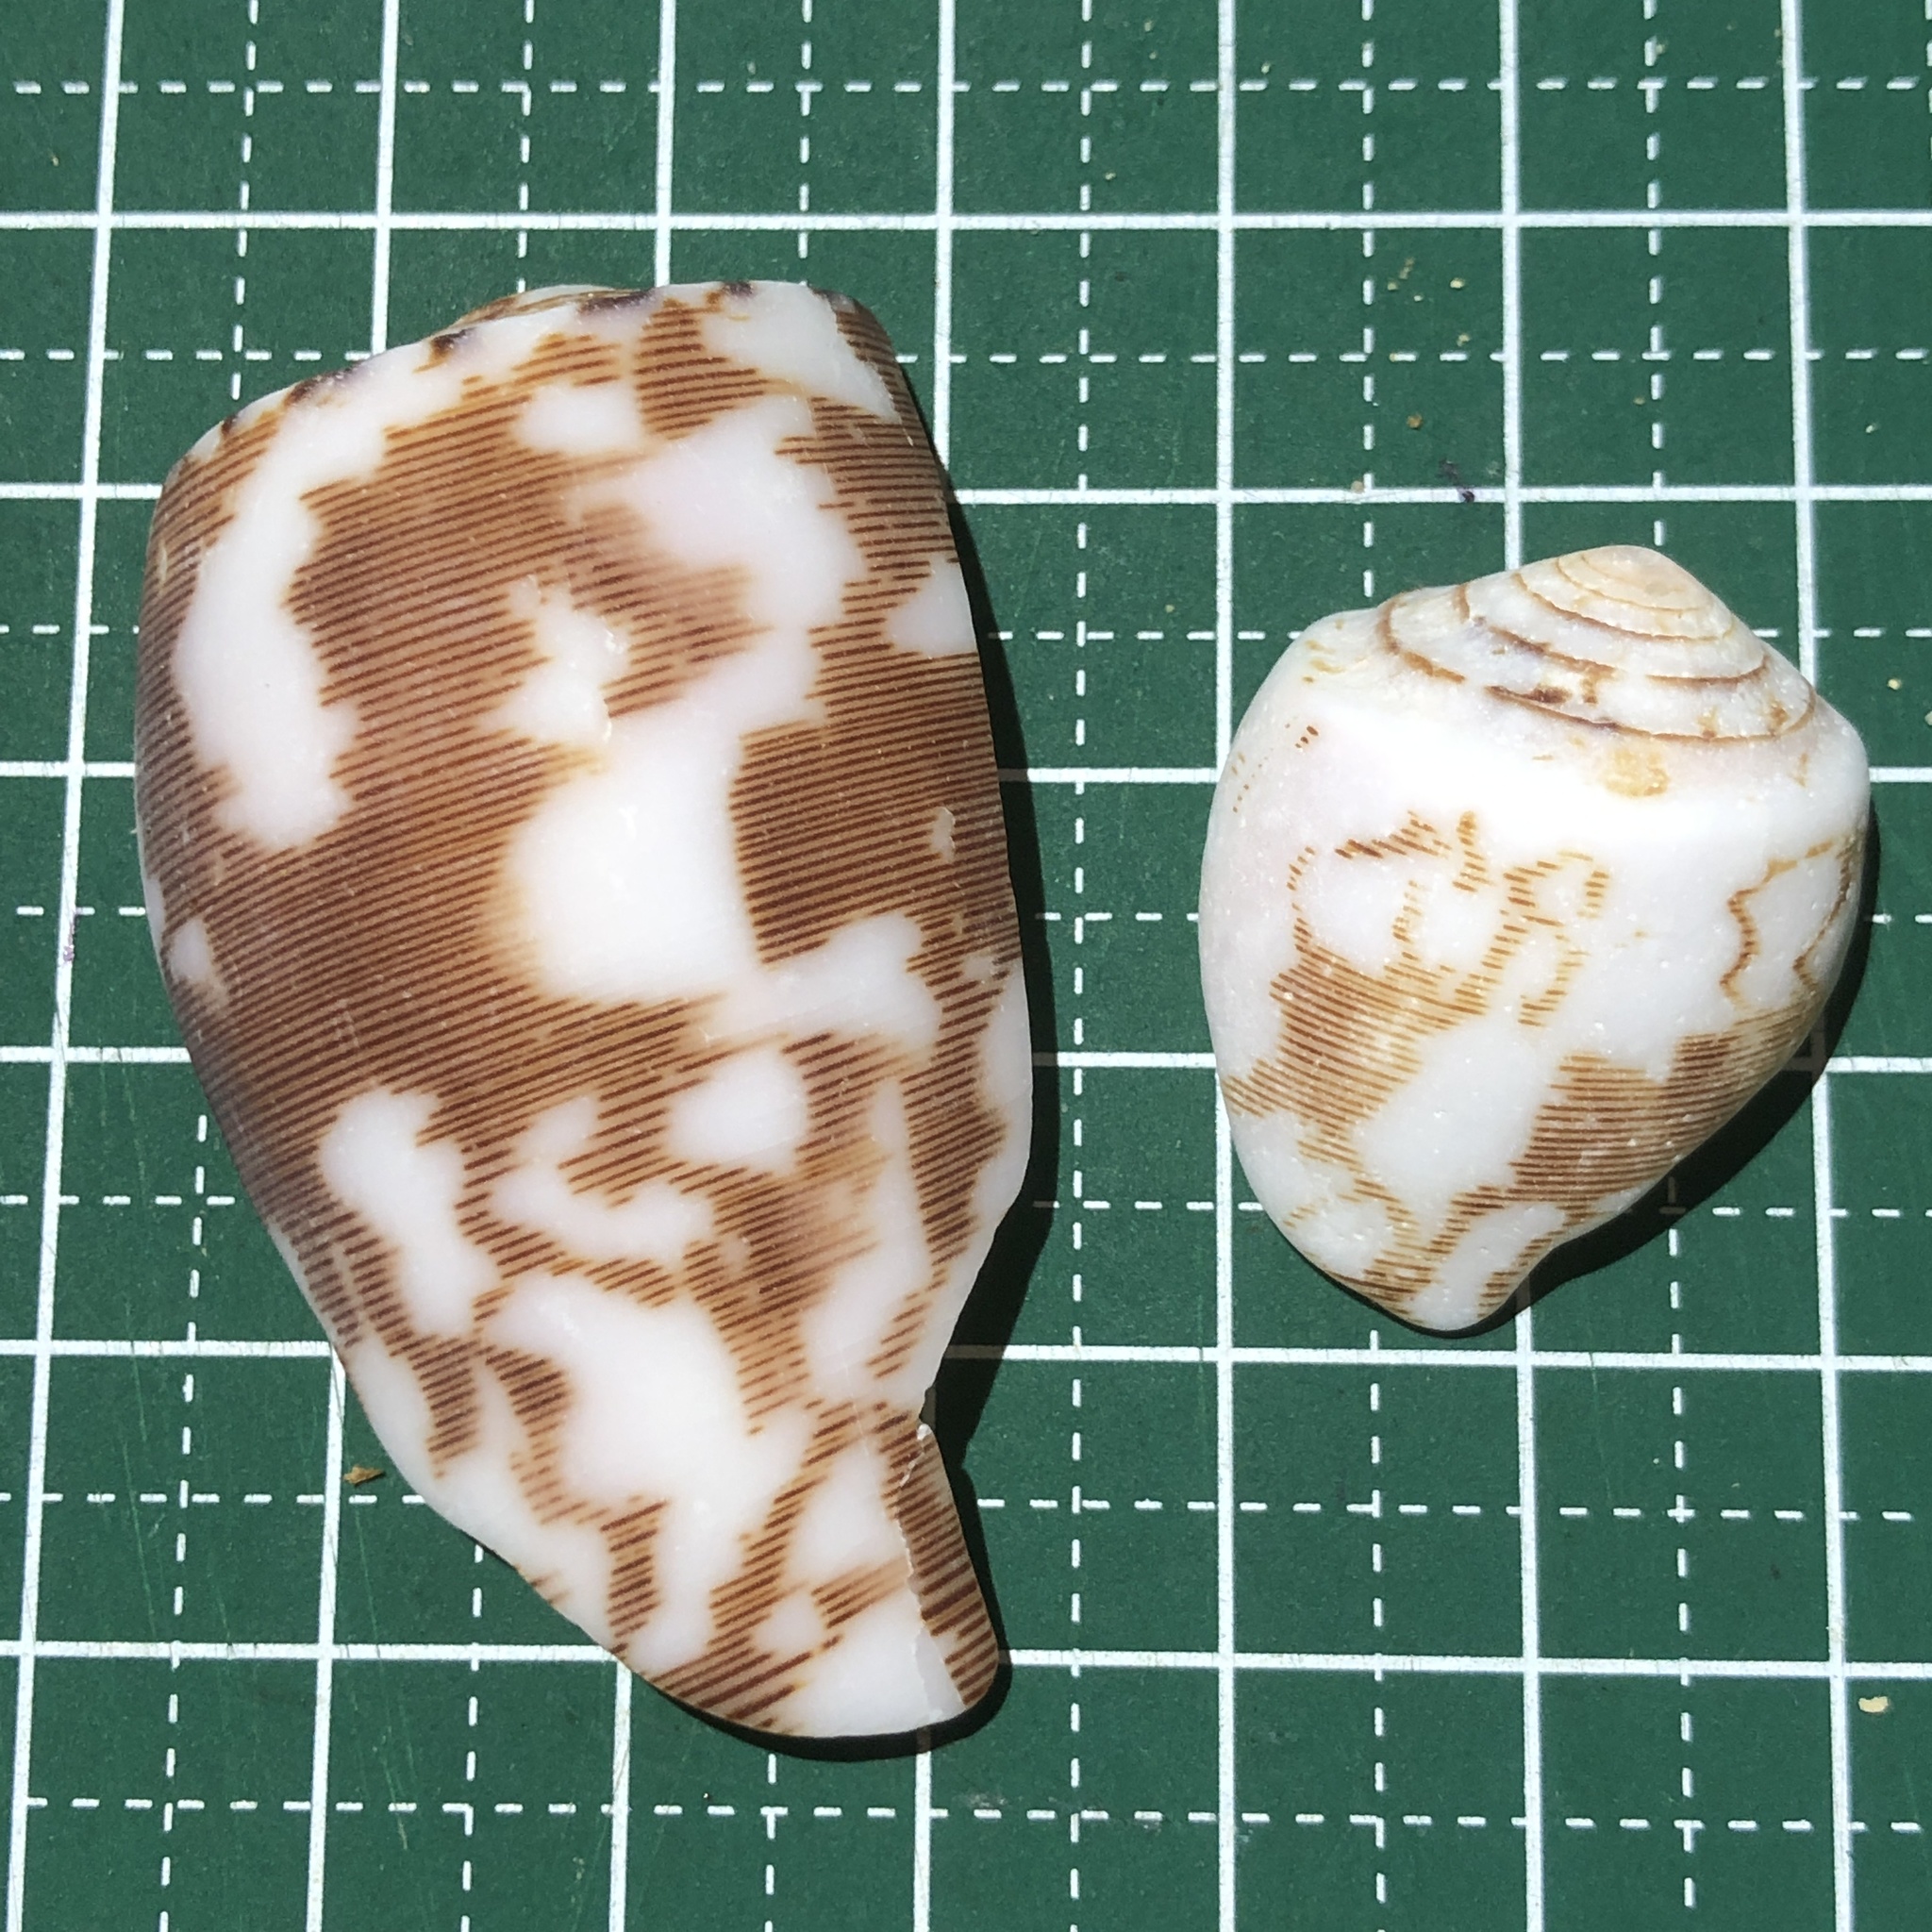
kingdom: Animalia
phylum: Mollusca
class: Gastropoda
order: Neogastropoda
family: Conidae
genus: Conus
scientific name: Conus striatus
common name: Striated cone
